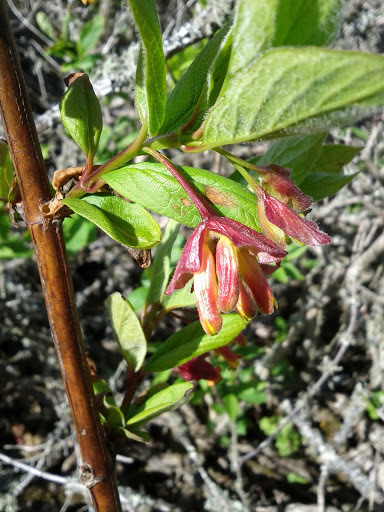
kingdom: Plantae
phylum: Tracheophyta
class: Magnoliopsida
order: Dipsacales
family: Caprifoliaceae
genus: Lonicera
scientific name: Lonicera involucrata
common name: Californian honeysuckle
